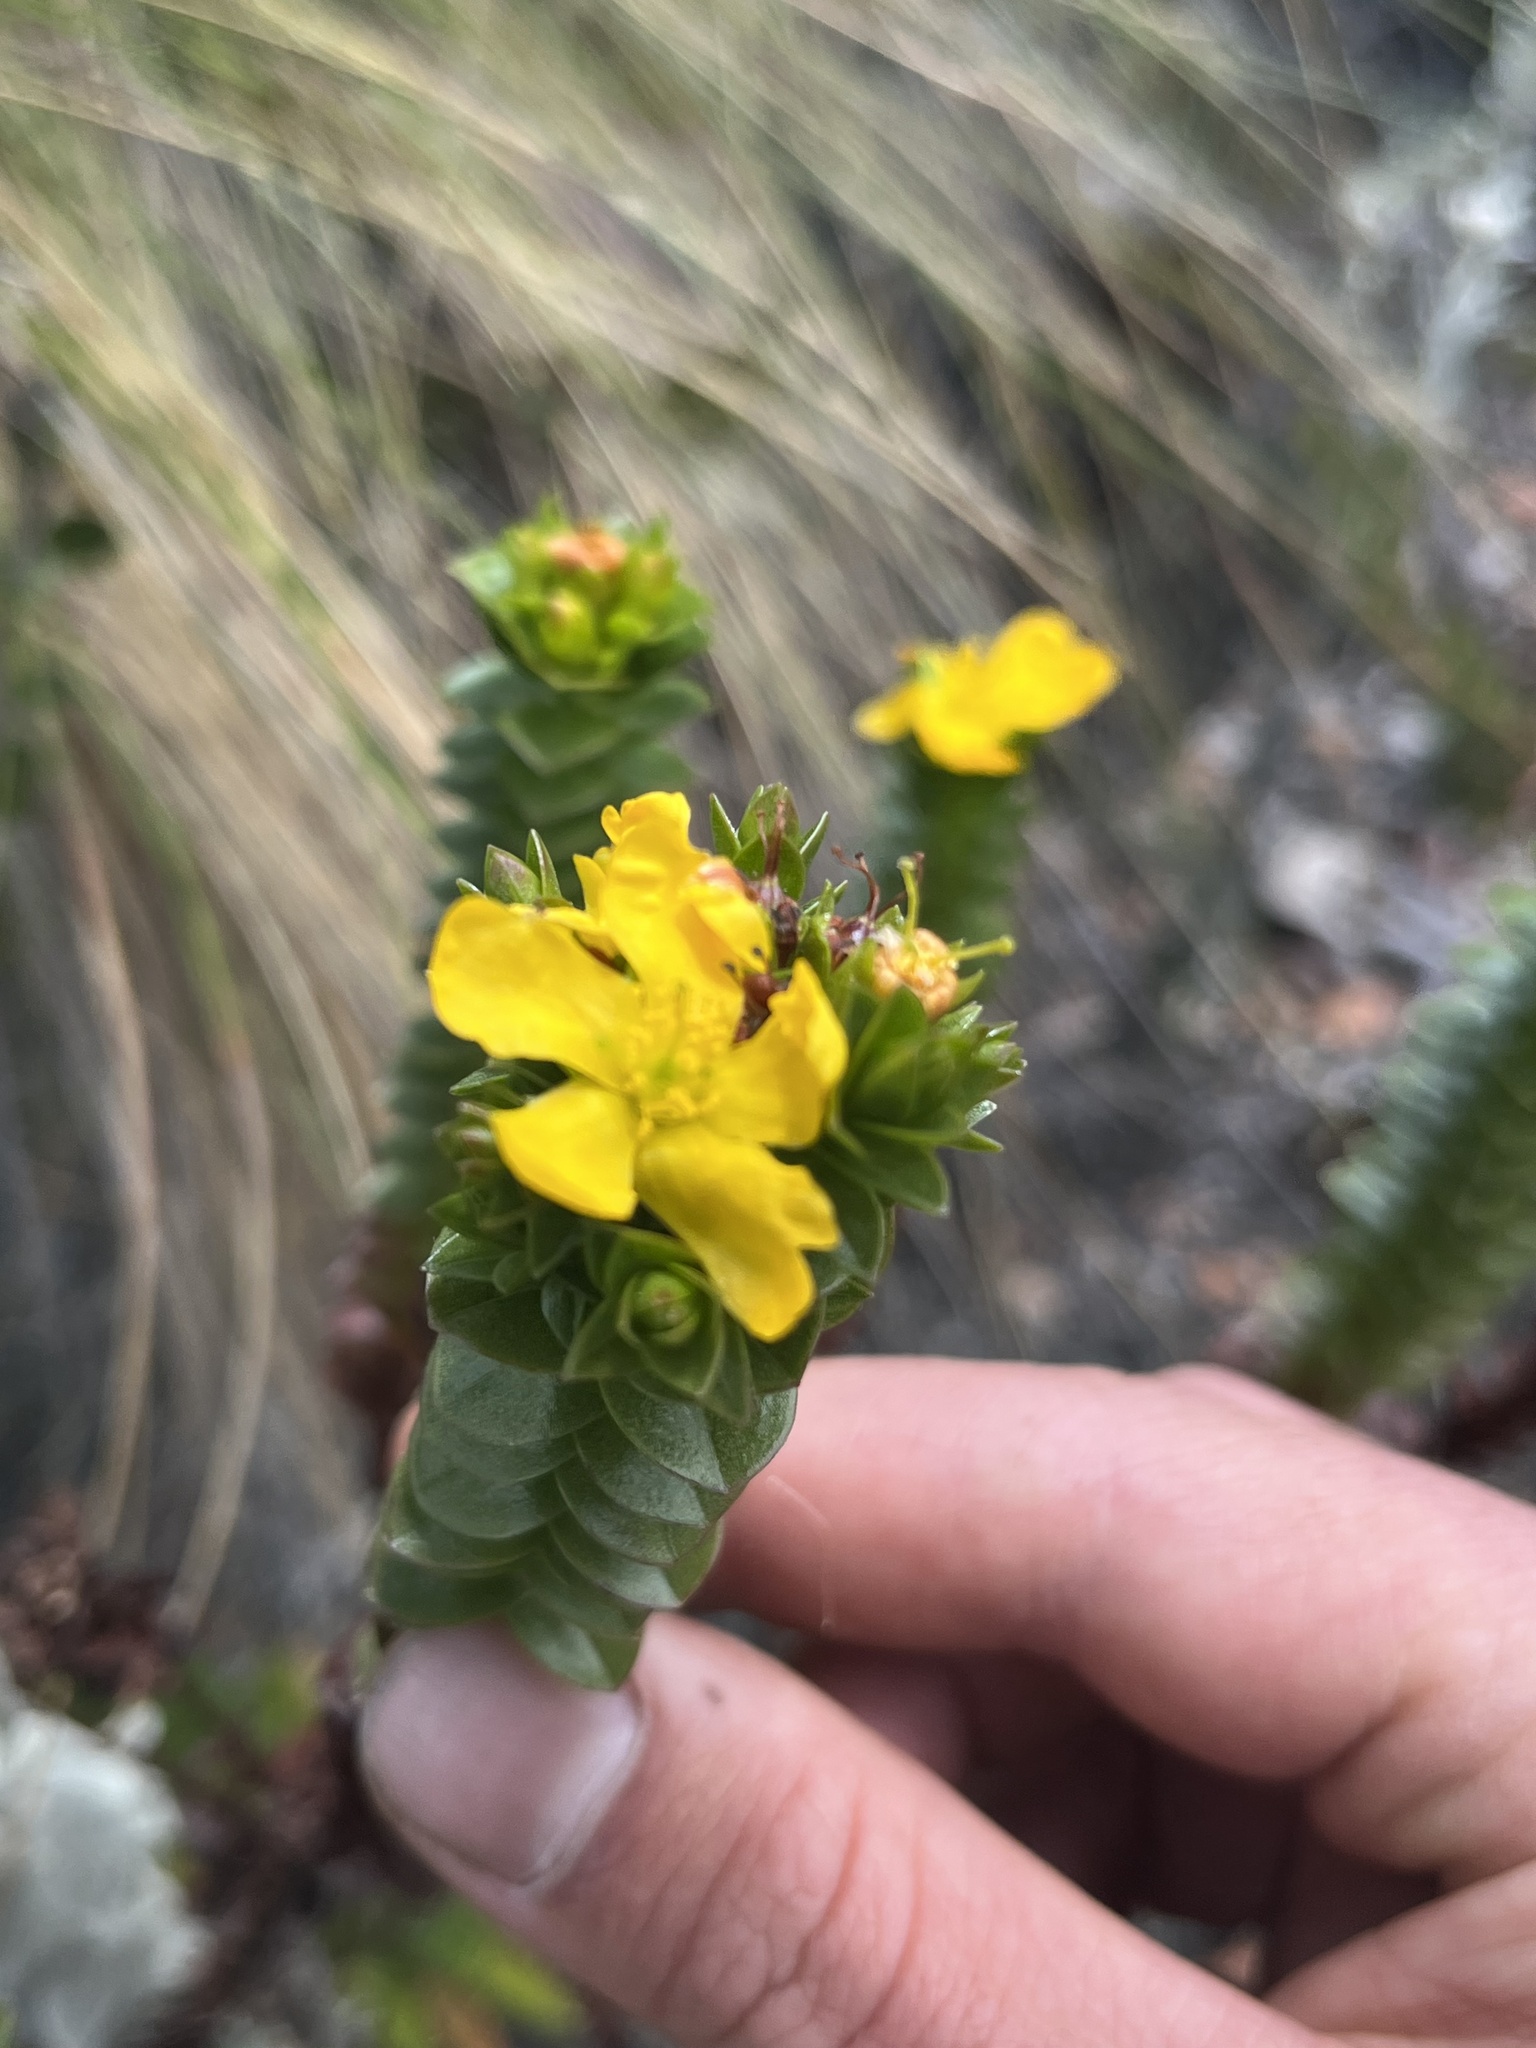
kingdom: Plantae
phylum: Tracheophyta
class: Magnoliopsida
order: Malpighiales
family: Hypericaceae
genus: Hypericum
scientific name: Hypericum mexicanum
